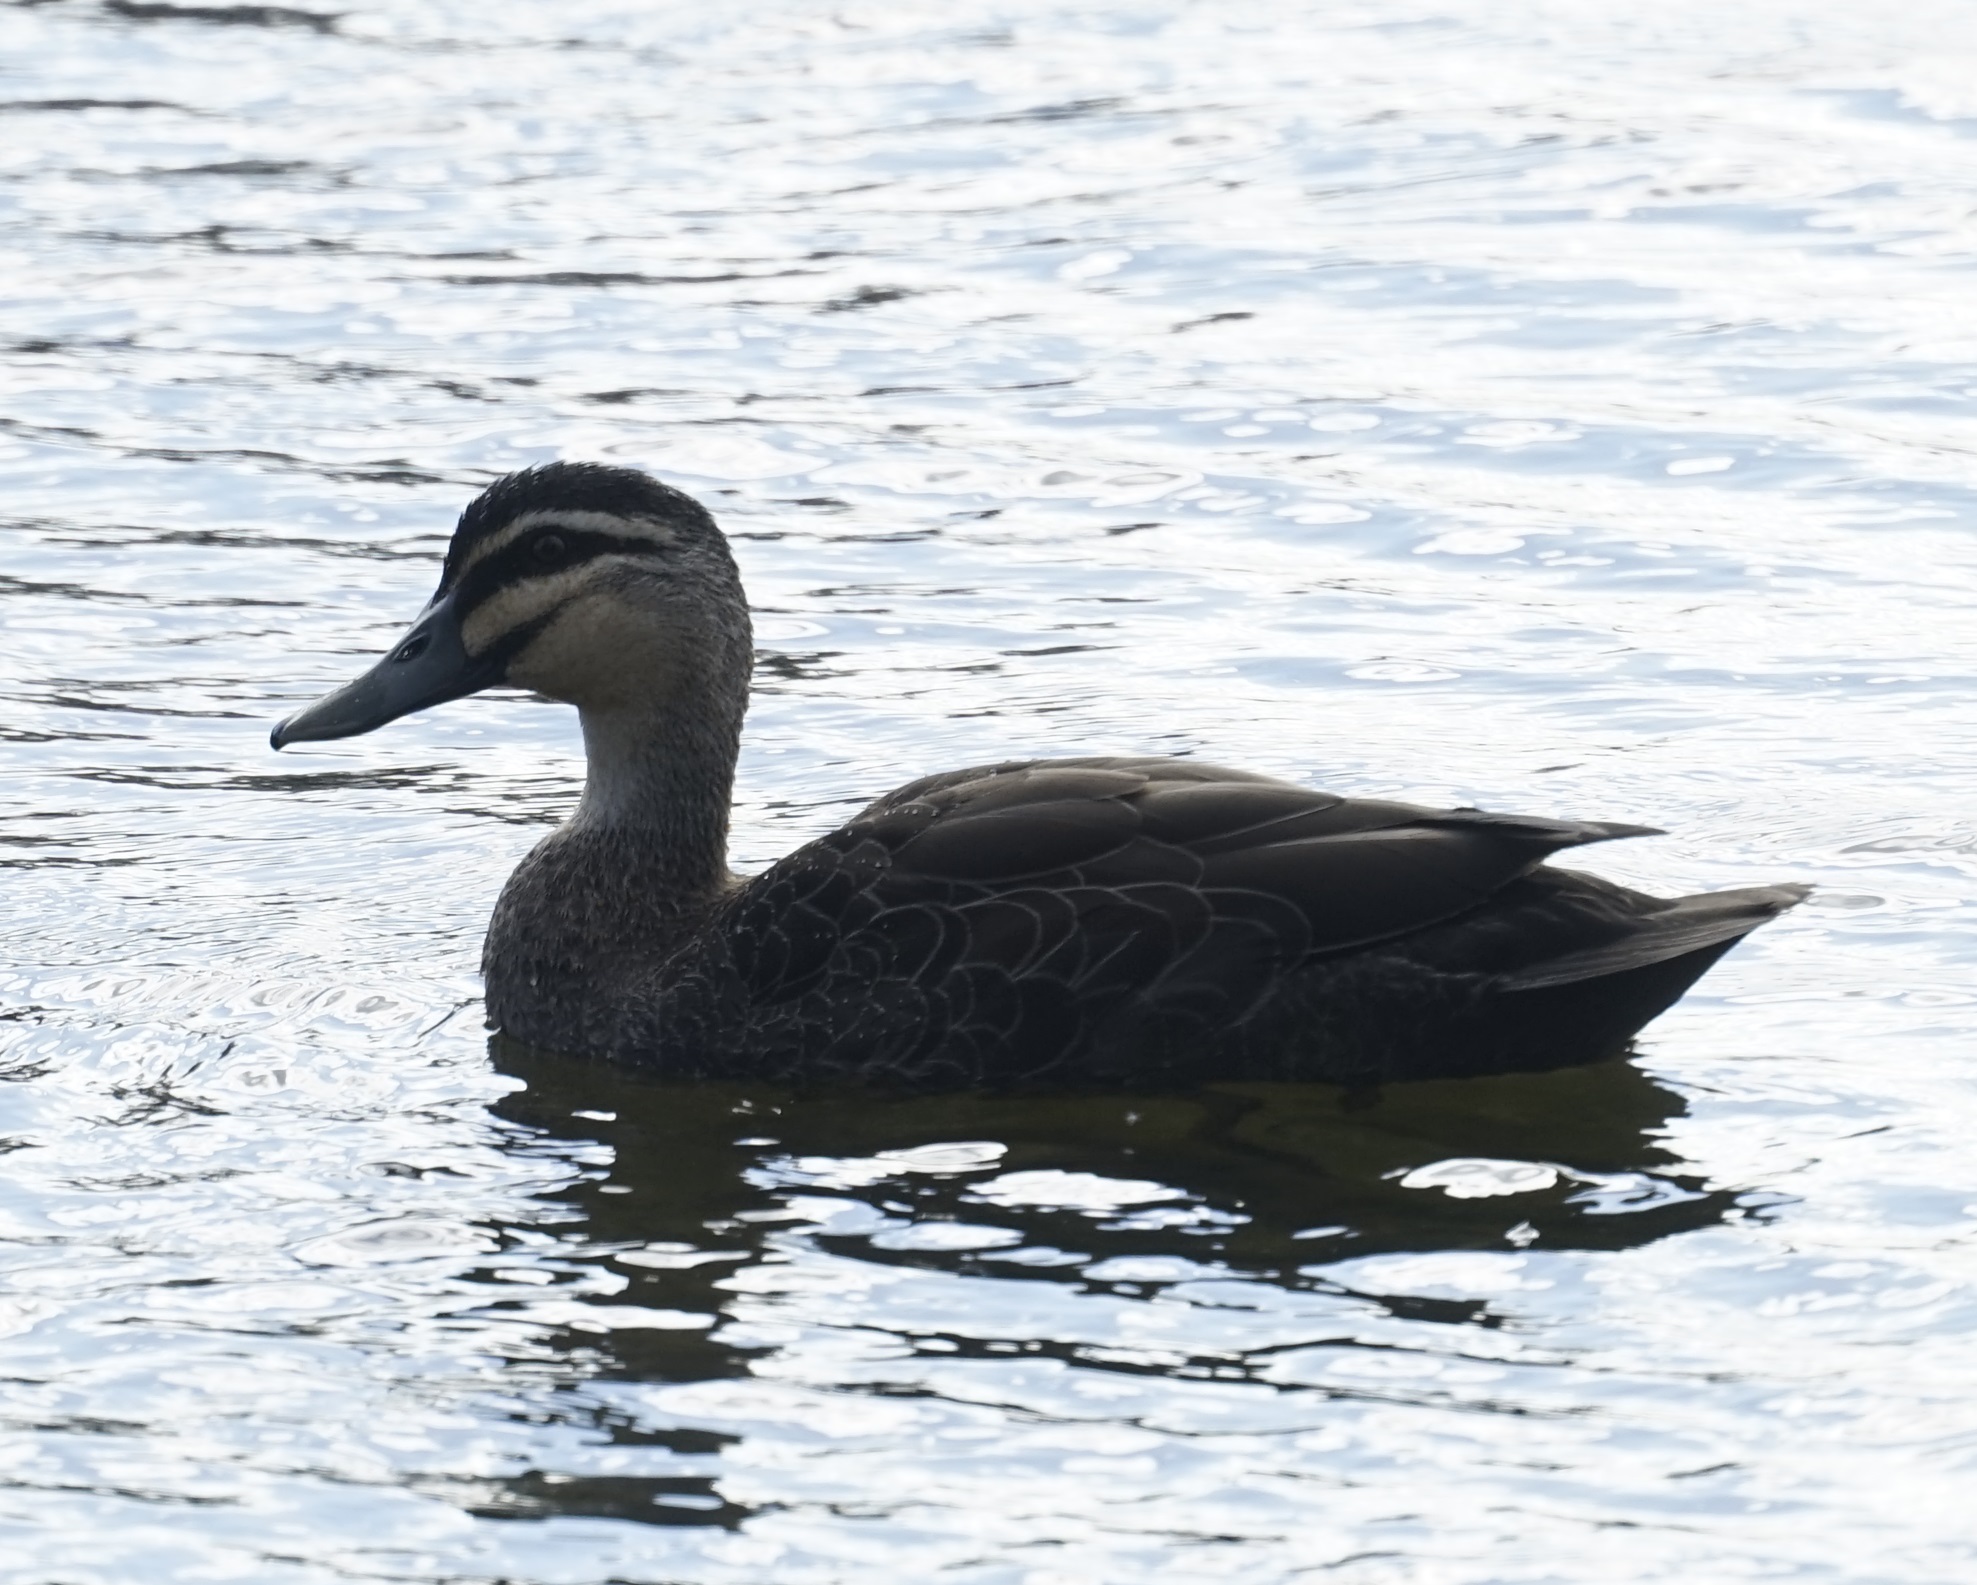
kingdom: Animalia
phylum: Chordata
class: Aves
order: Anseriformes
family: Anatidae
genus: Anas
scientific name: Anas superciliosa
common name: Pacific black duck
